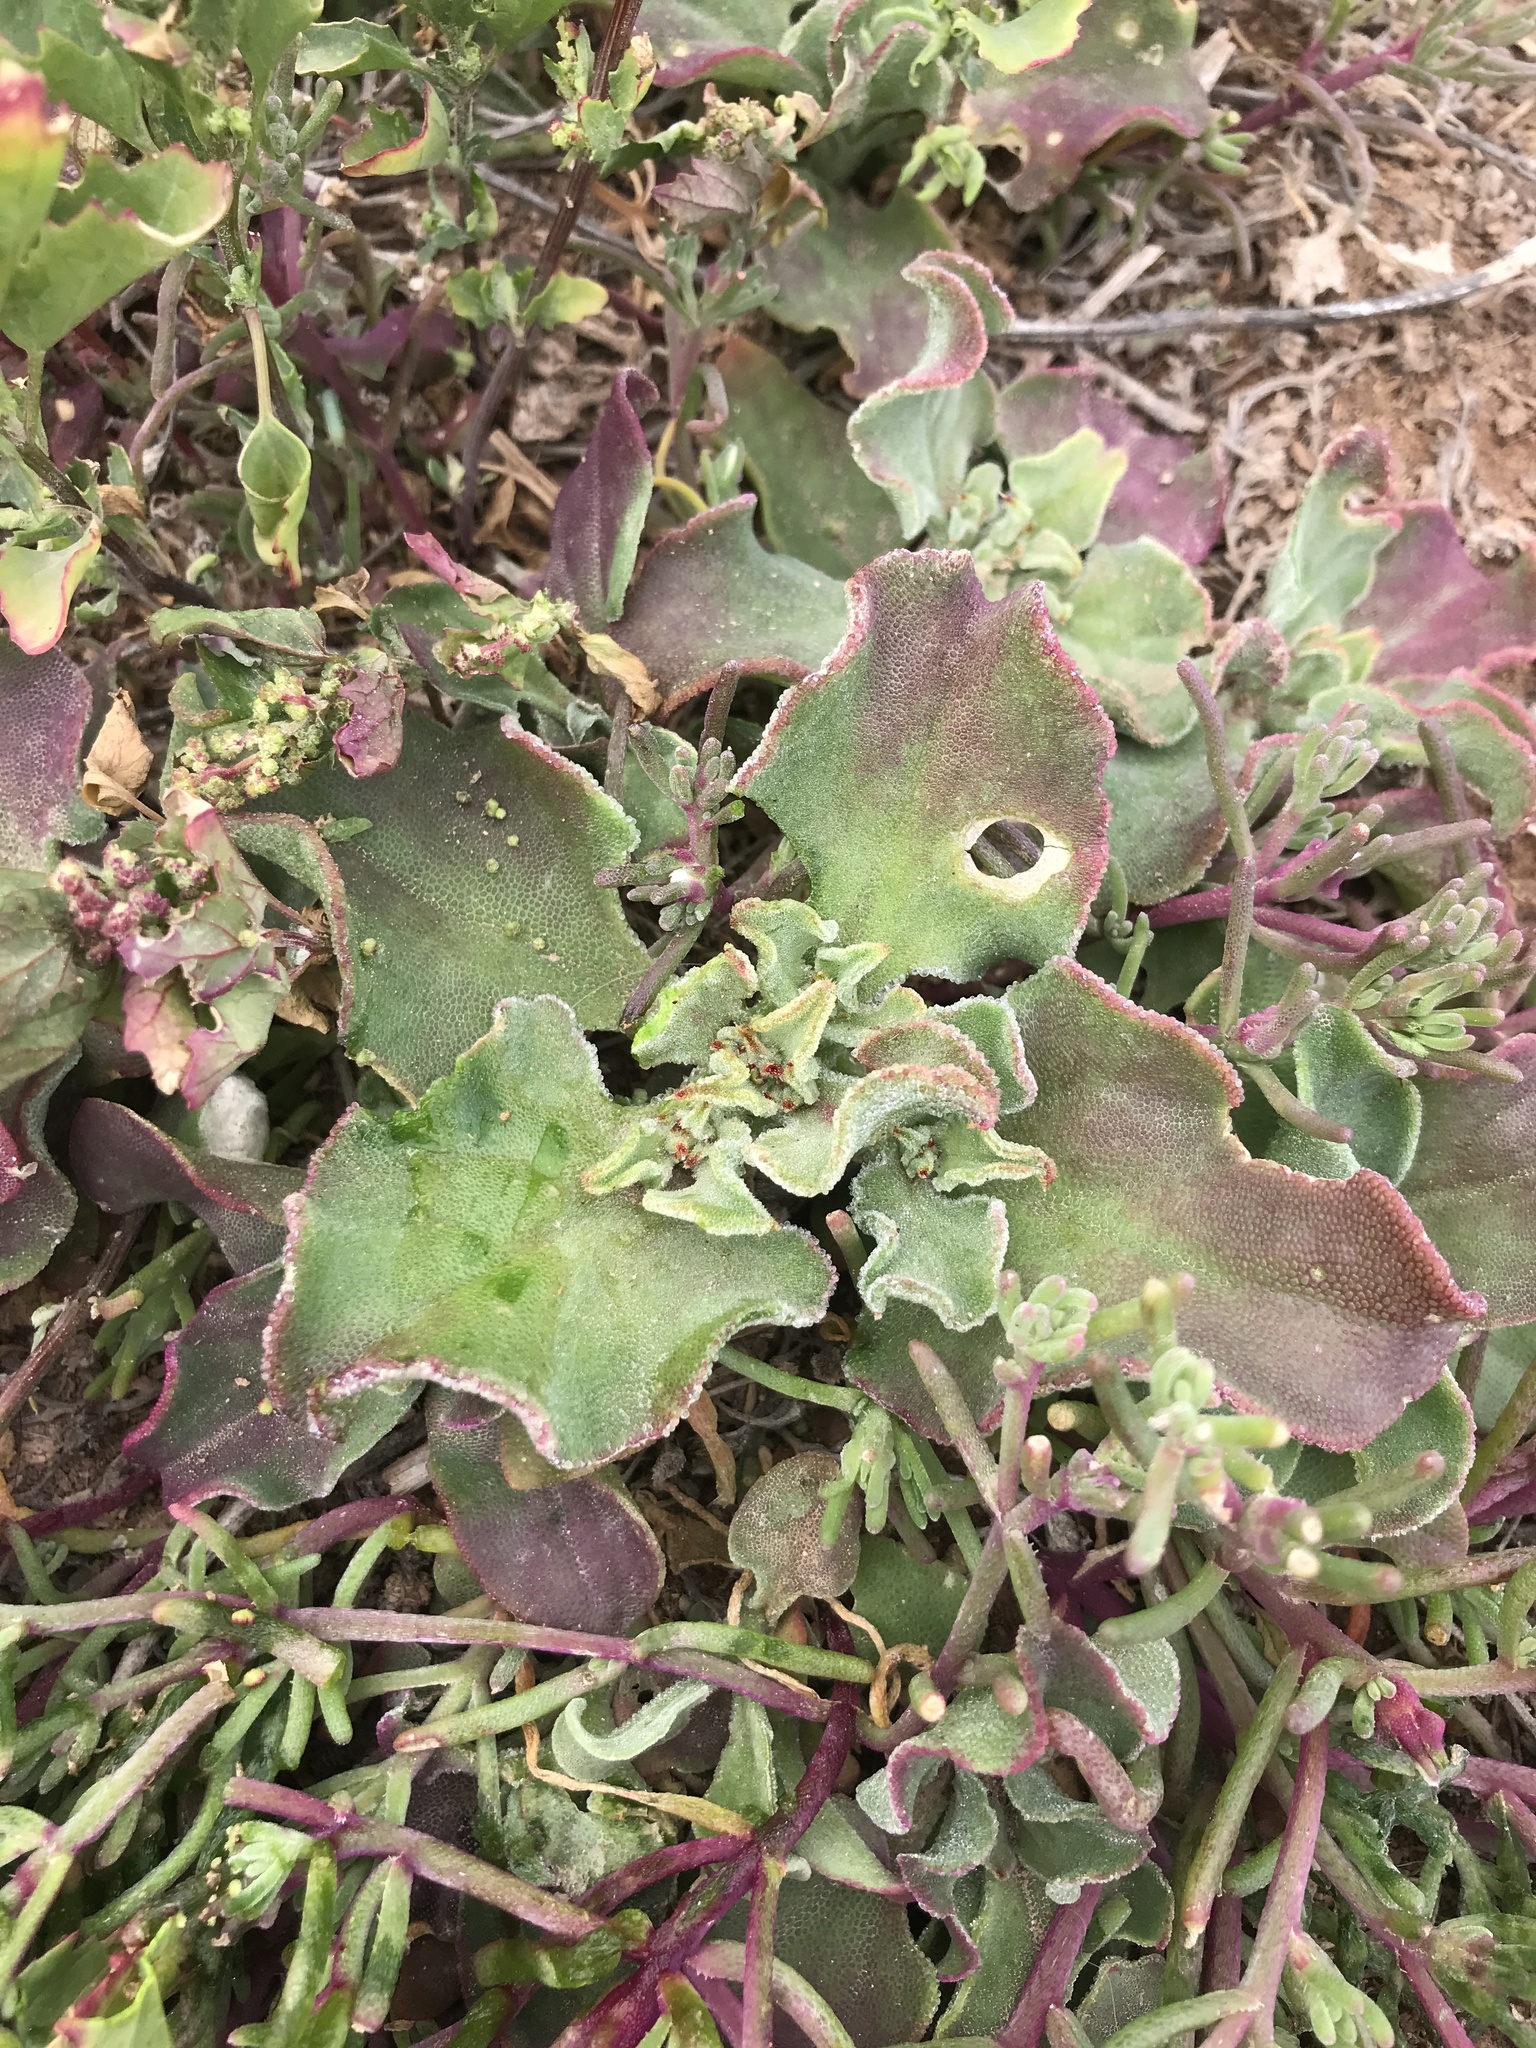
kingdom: Plantae
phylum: Tracheophyta
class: Magnoliopsida
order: Caryophyllales
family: Aizoaceae
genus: Mesembryanthemum
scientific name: Mesembryanthemum crystallinum
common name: Common iceplant
